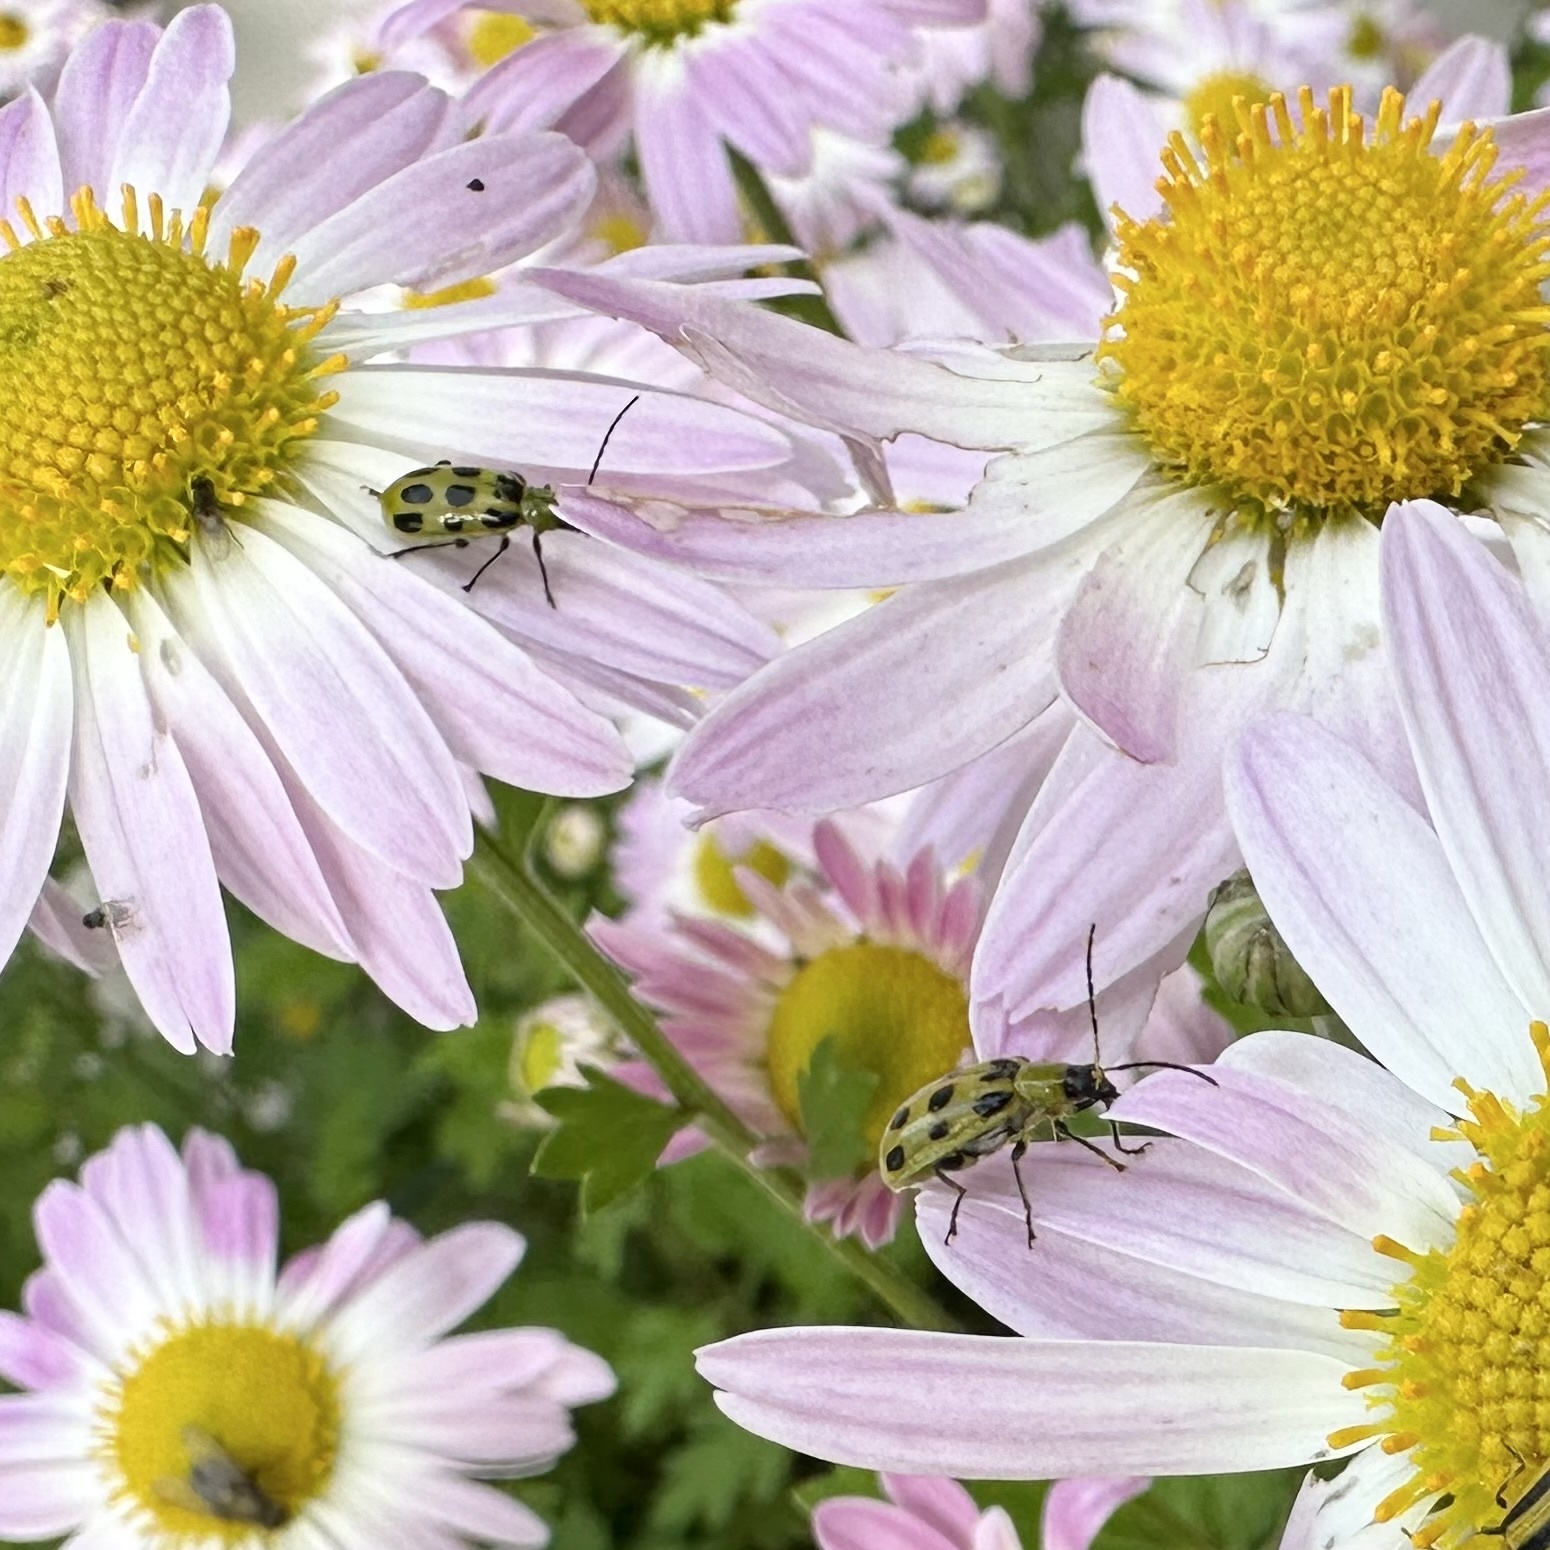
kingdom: Animalia
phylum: Arthropoda
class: Insecta
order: Coleoptera
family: Chrysomelidae
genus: Diabrotica
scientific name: Diabrotica undecimpunctata
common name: Spotted cucumber beetle
